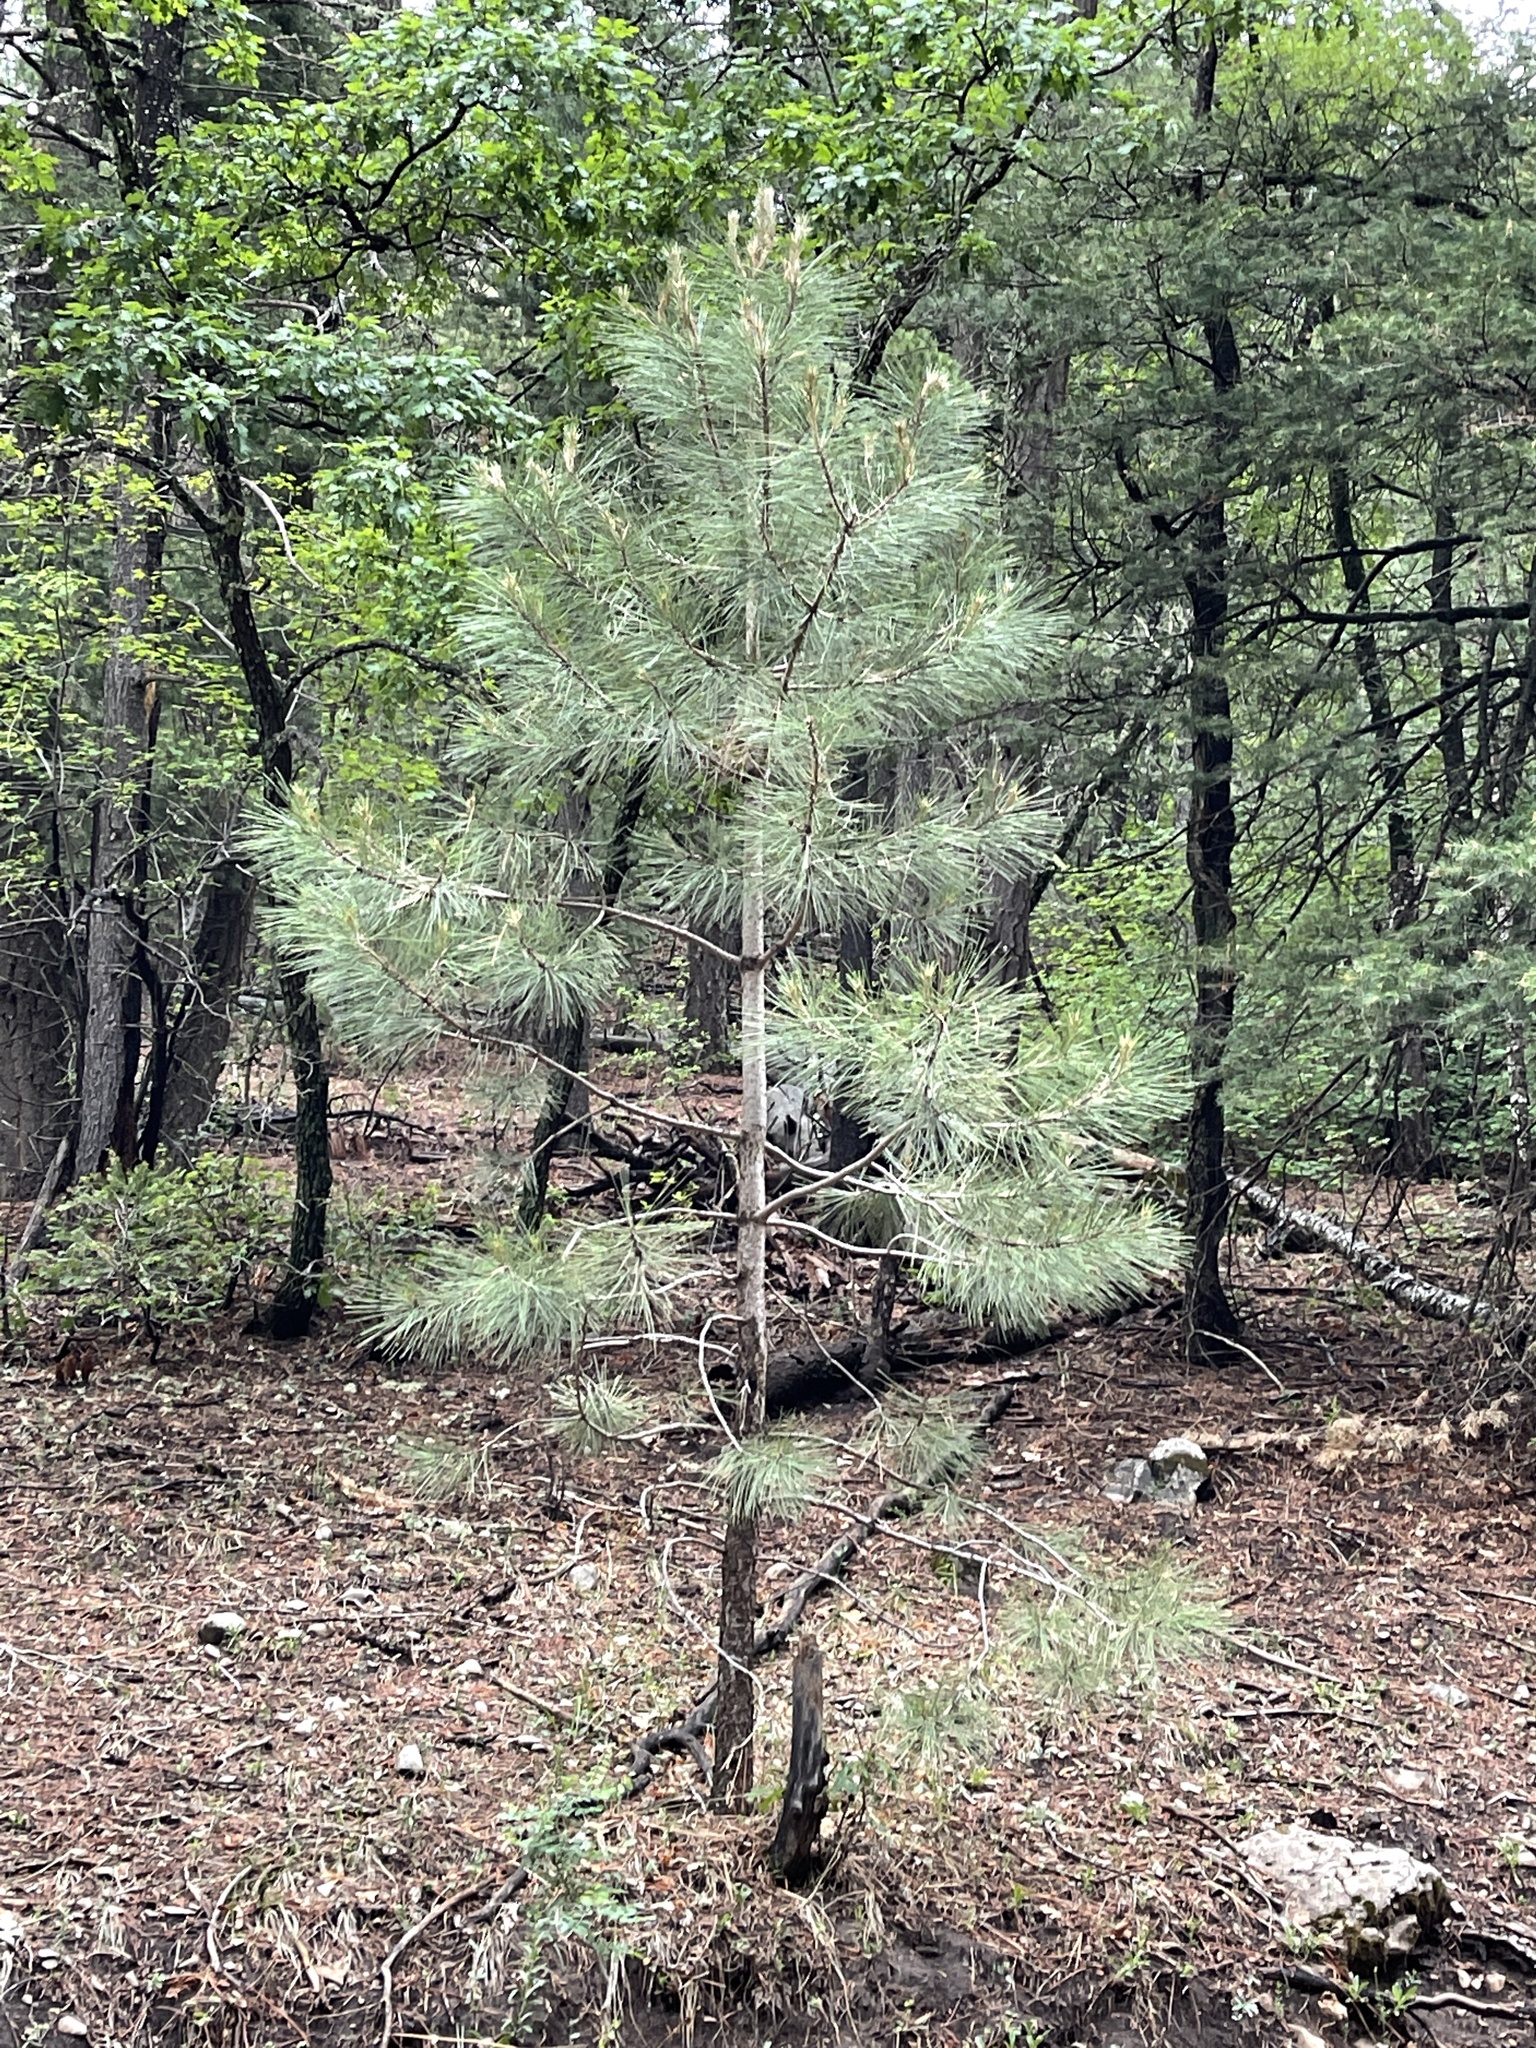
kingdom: Plantae
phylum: Tracheophyta
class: Pinopsida
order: Pinales
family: Pinaceae
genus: Pinus
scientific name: Pinus ponderosa
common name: Western yellow-pine
